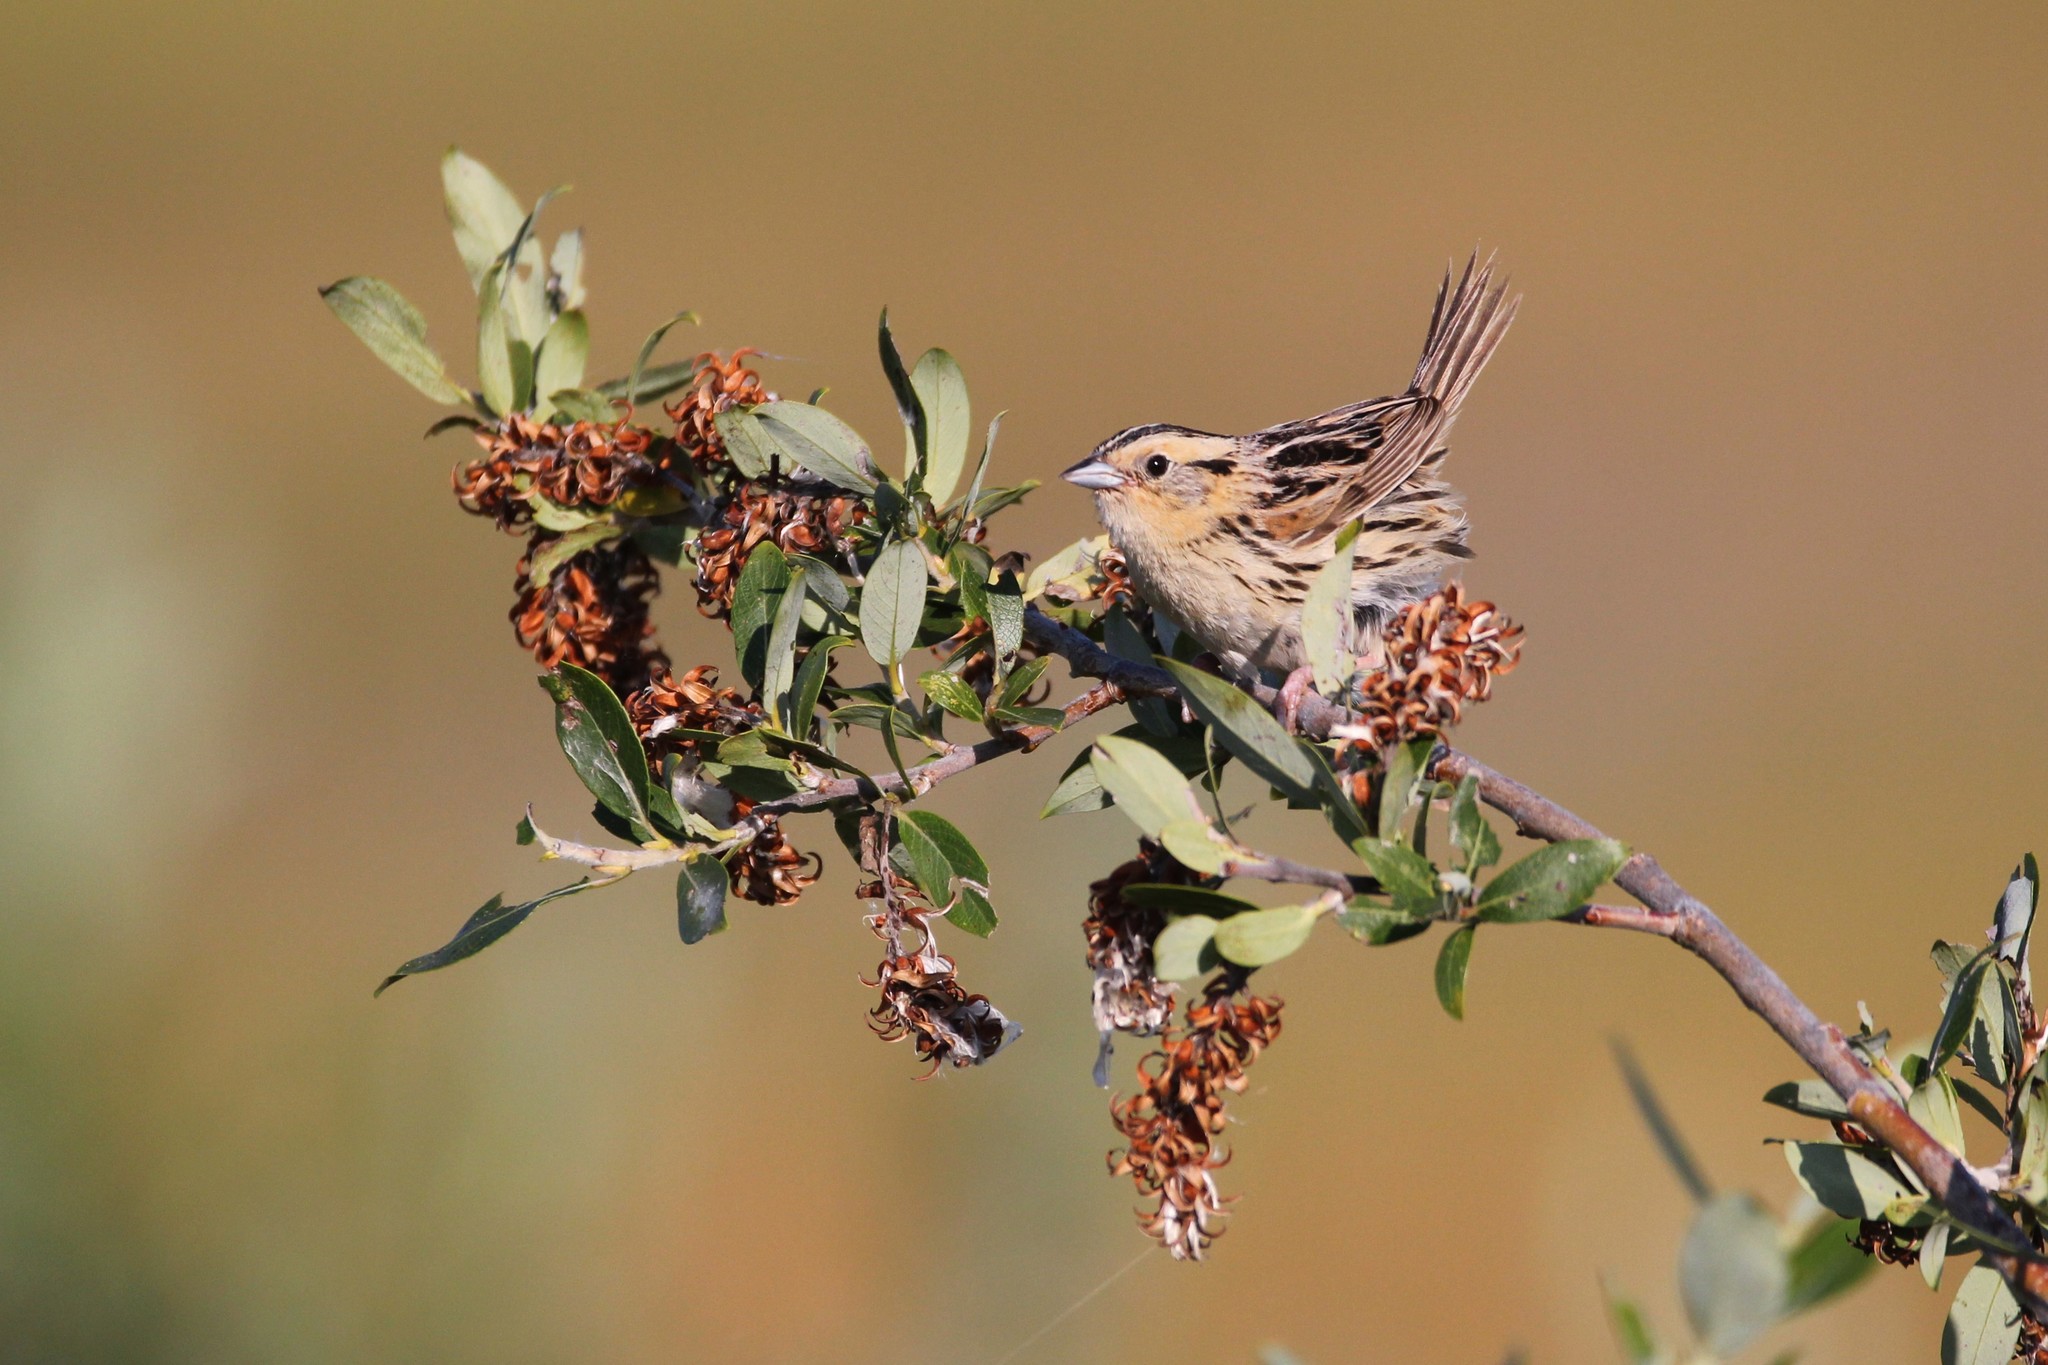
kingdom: Animalia
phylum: Chordata
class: Aves
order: Passeriformes
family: Passerellidae
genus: Ammospiza
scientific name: Ammospiza leconteii
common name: Le conte's sparrow
